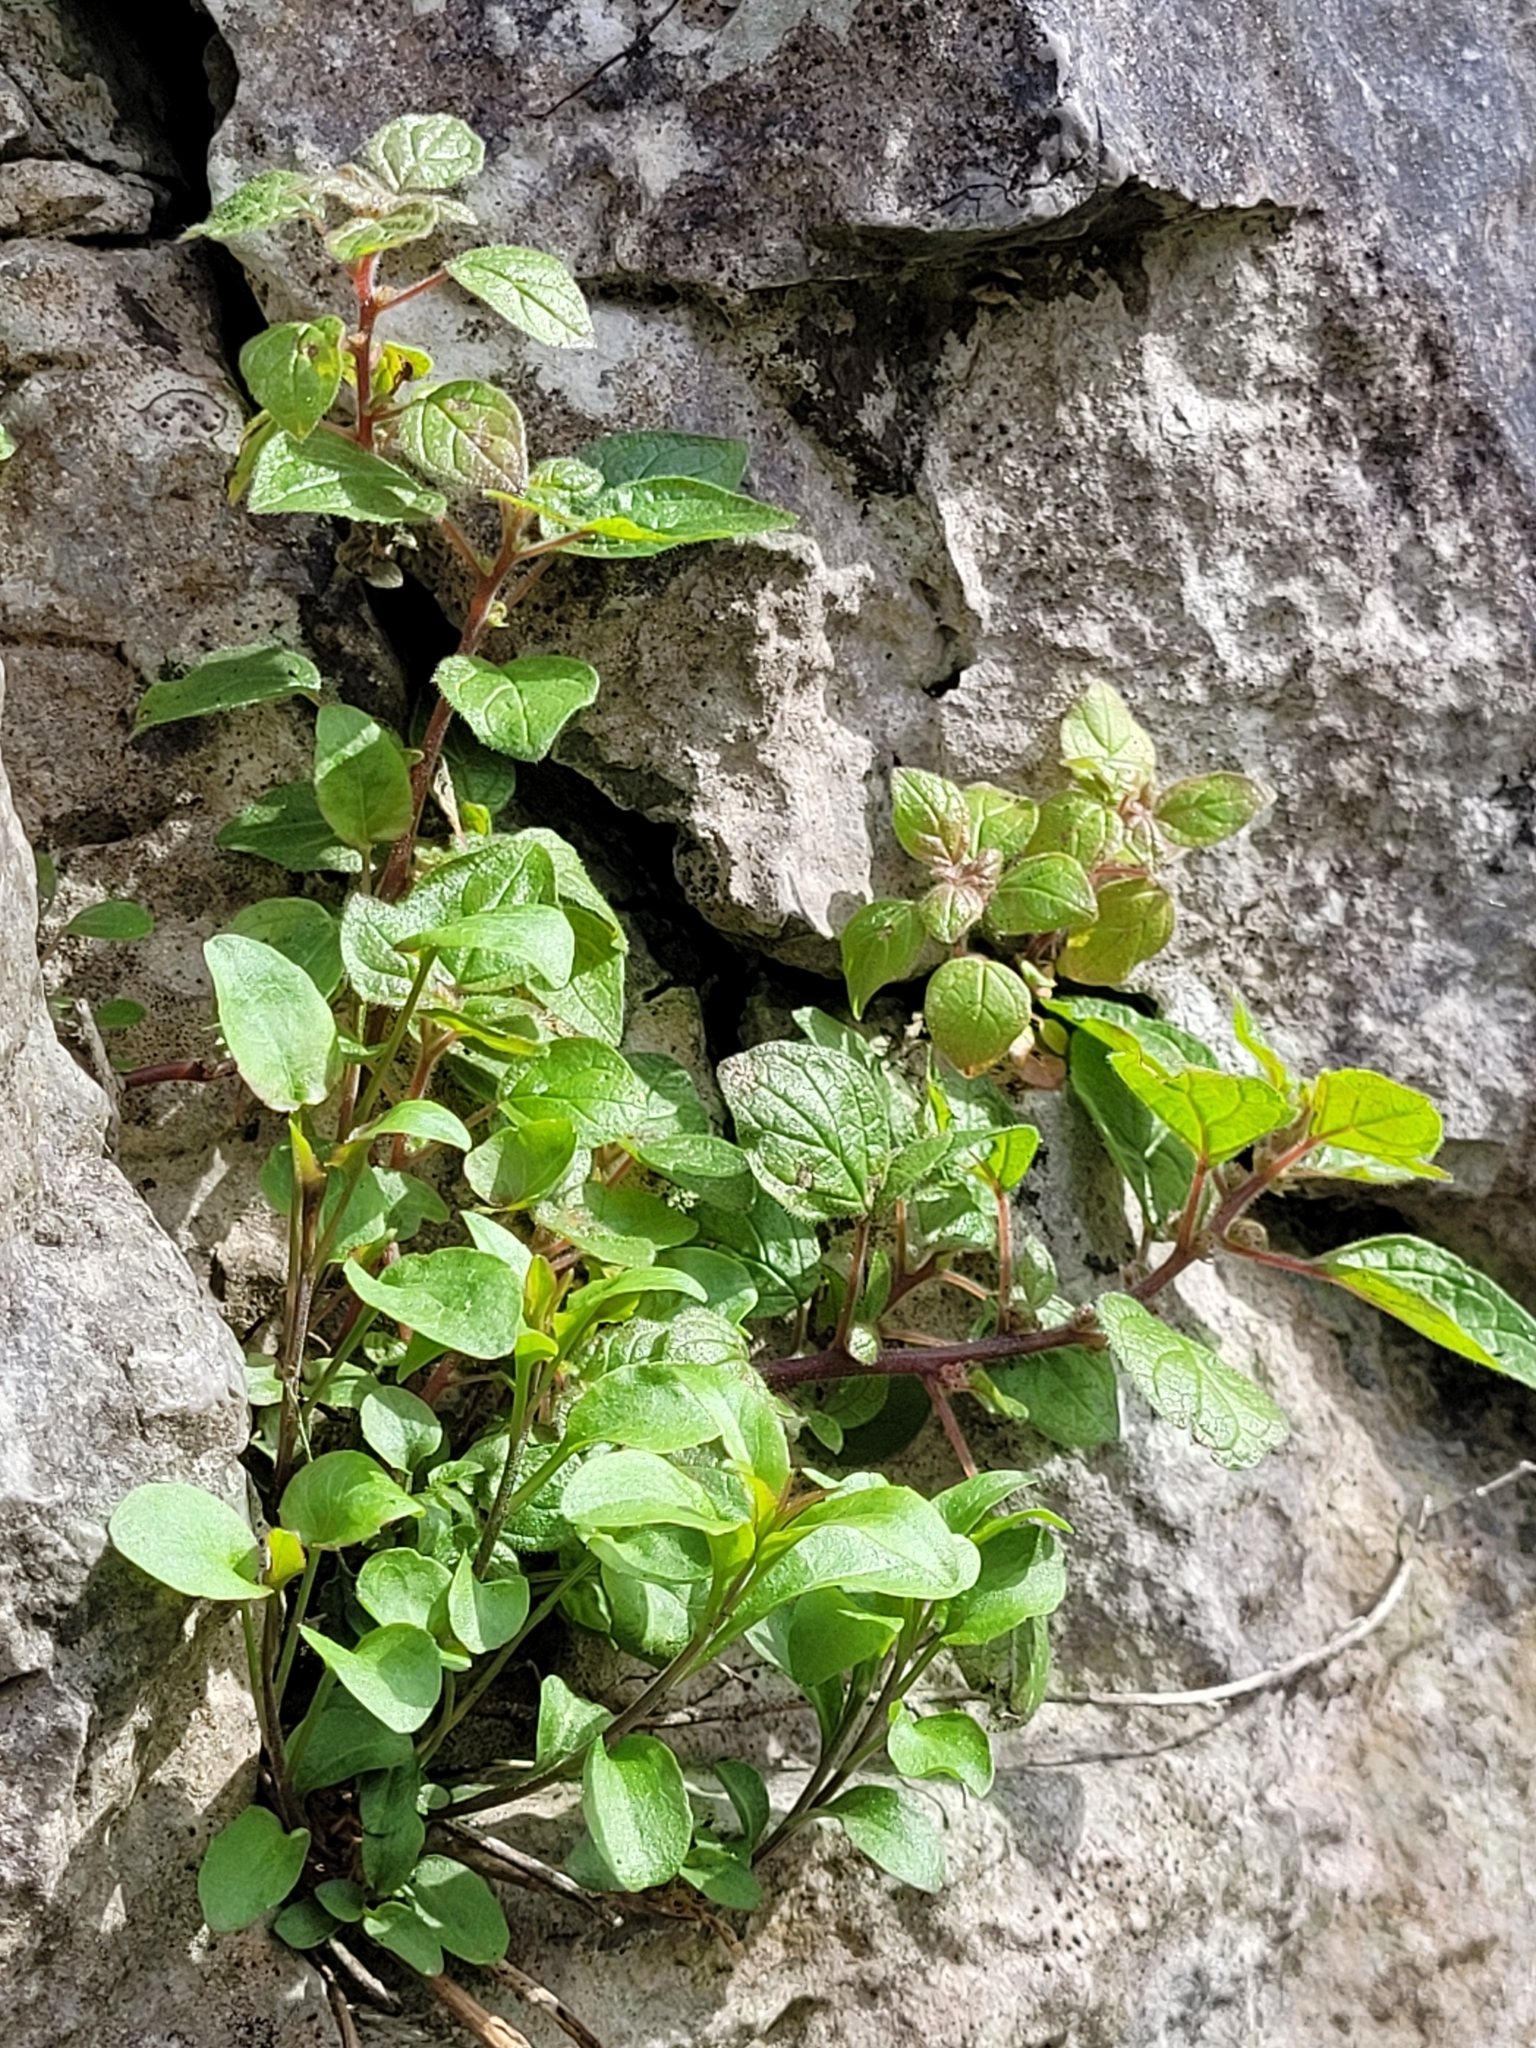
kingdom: Plantae
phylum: Tracheophyta
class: Magnoliopsida
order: Rosales
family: Urticaceae
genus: Parietaria
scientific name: Parietaria judaica
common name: Pellitory-of-the-wall
